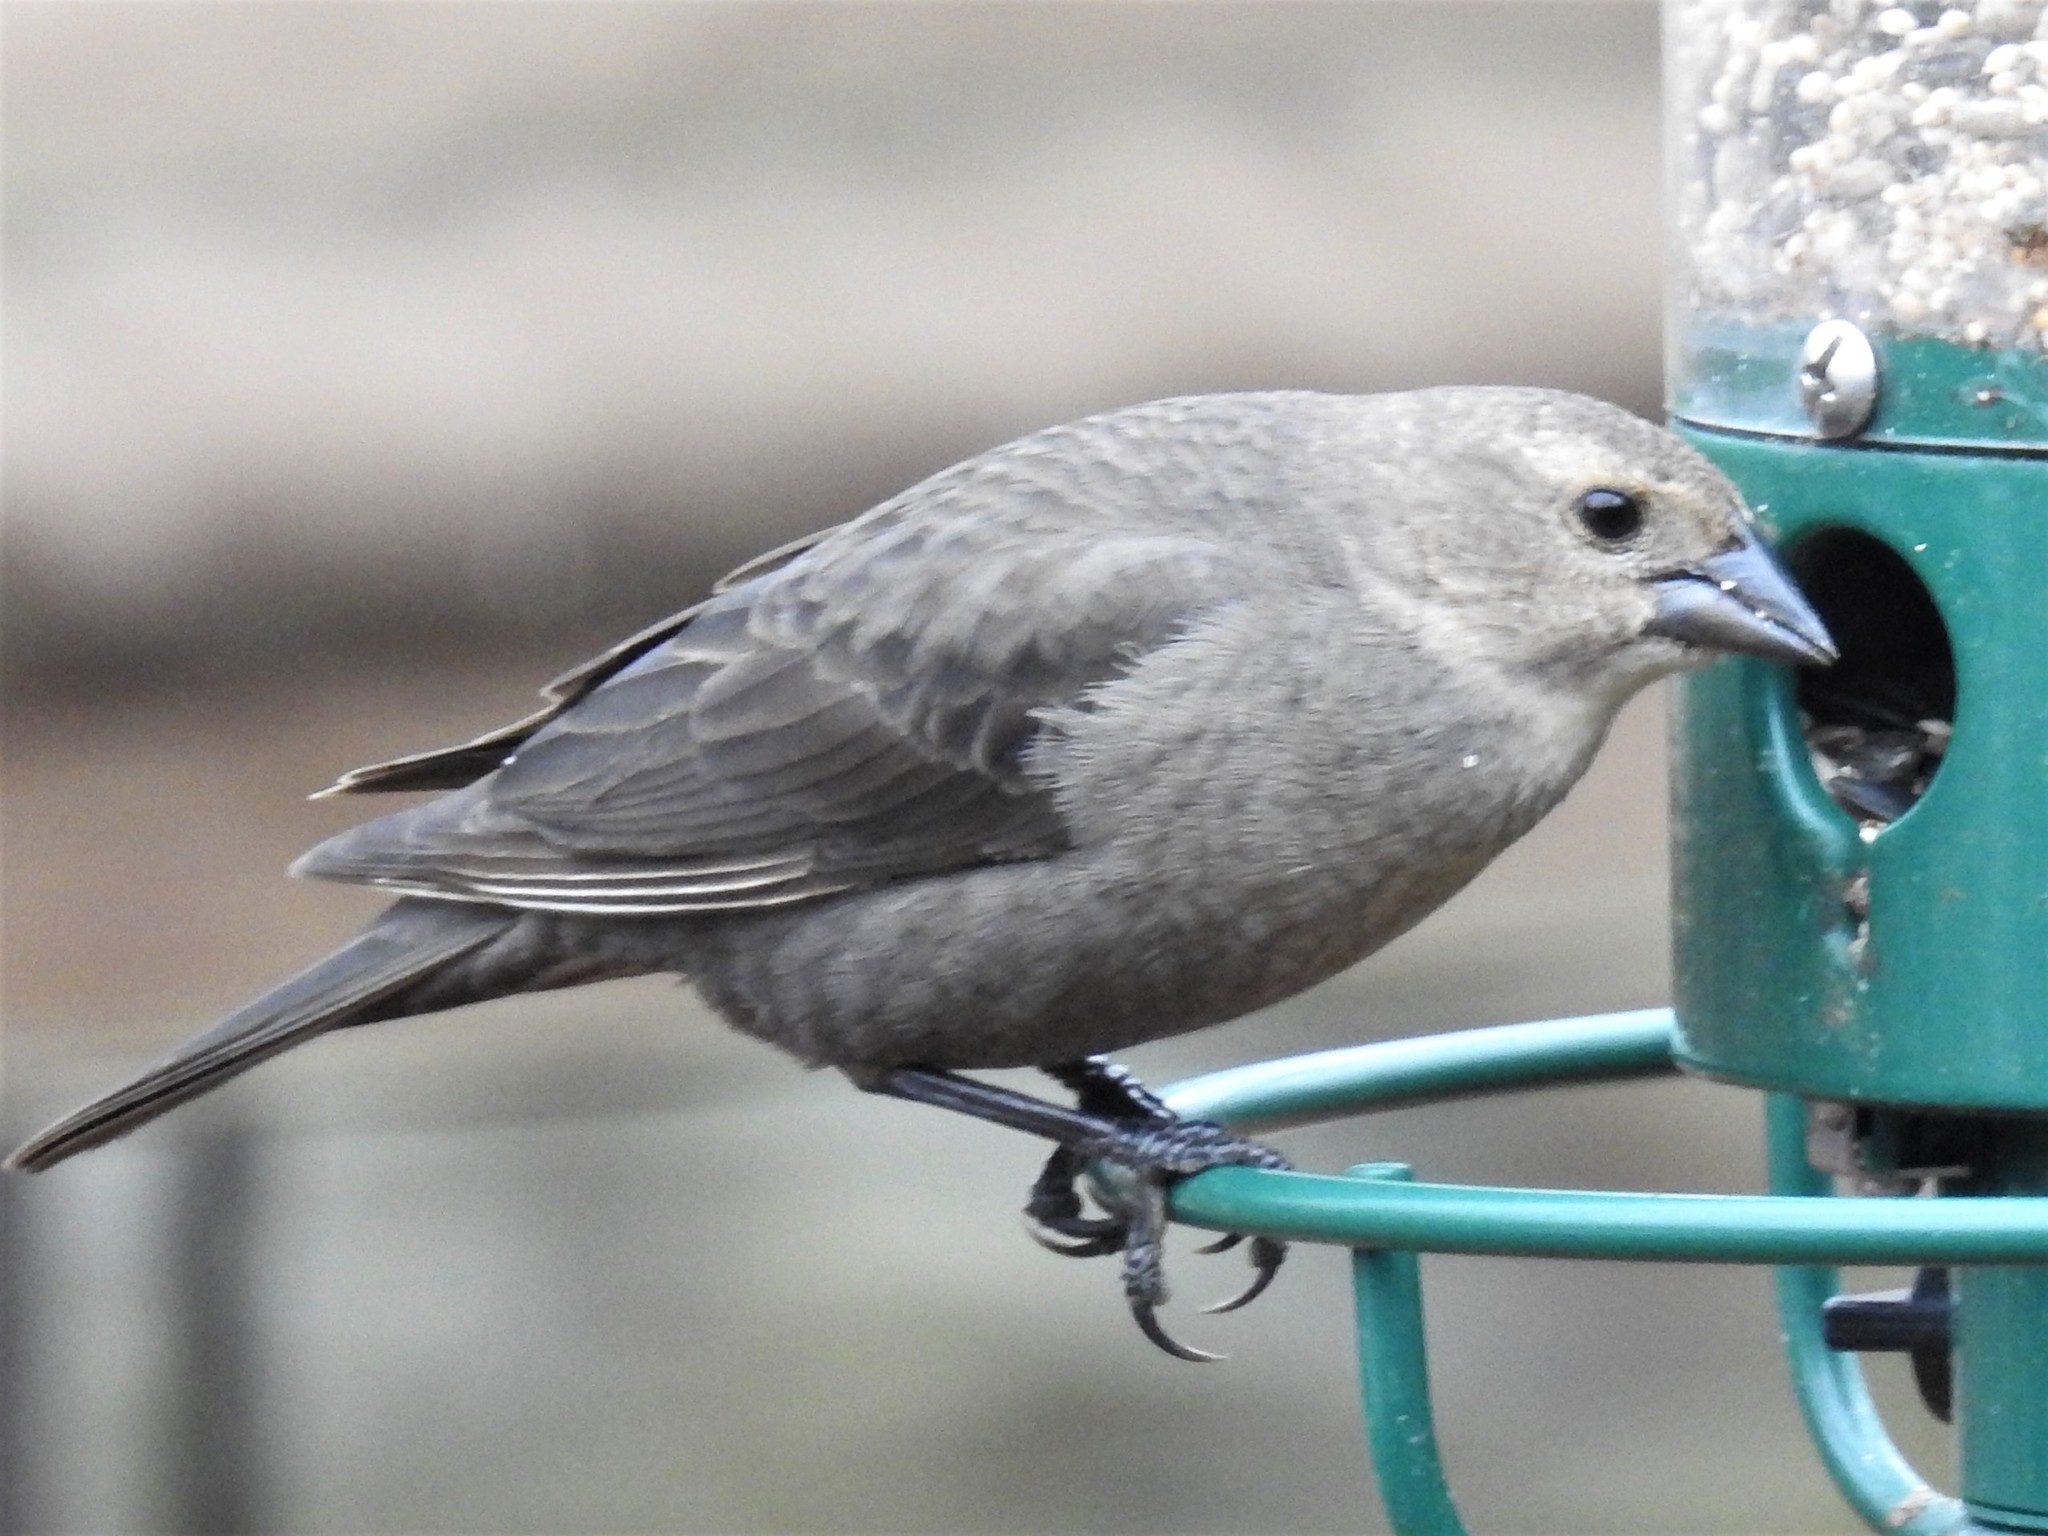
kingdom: Animalia
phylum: Chordata
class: Aves
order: Passeriformes
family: Icteridae
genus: Molothrus
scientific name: Molothrus ater
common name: Brown-headed cowbird
